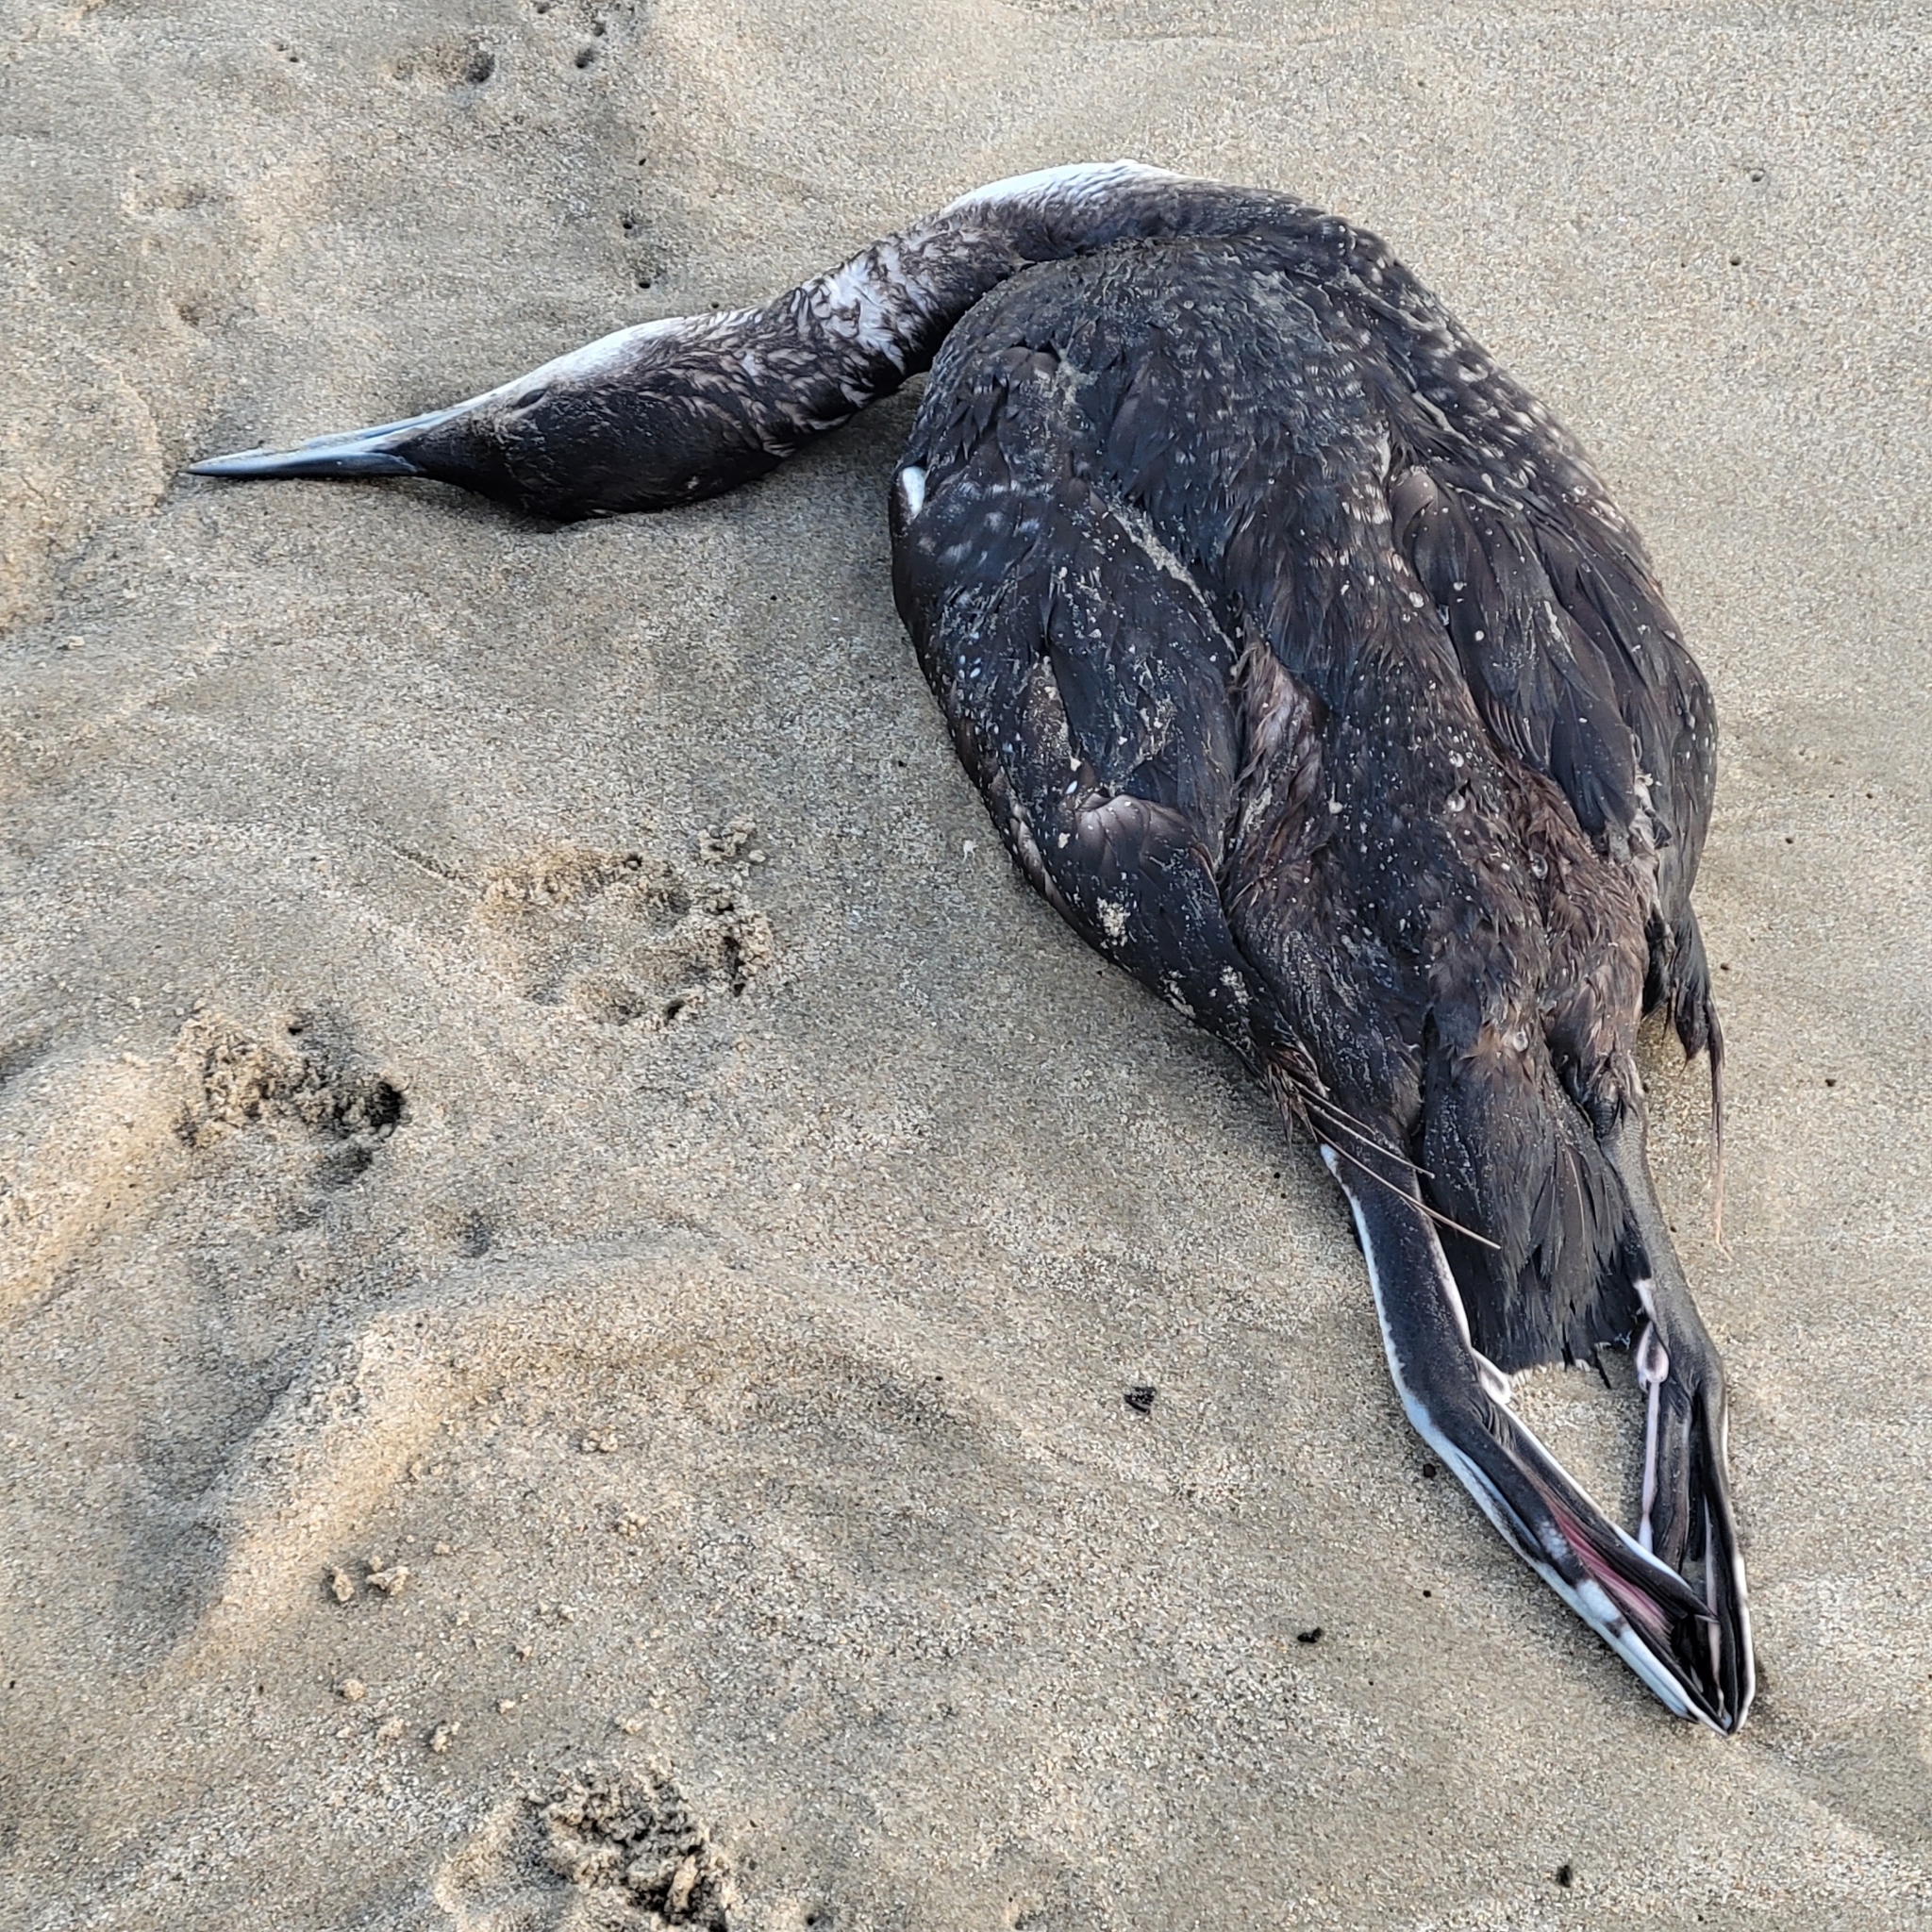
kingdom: Animalia
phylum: Chordata
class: Aves
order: Gaviiformes
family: Gaviidae
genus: Gavia
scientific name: Gavia immer
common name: Common loon
